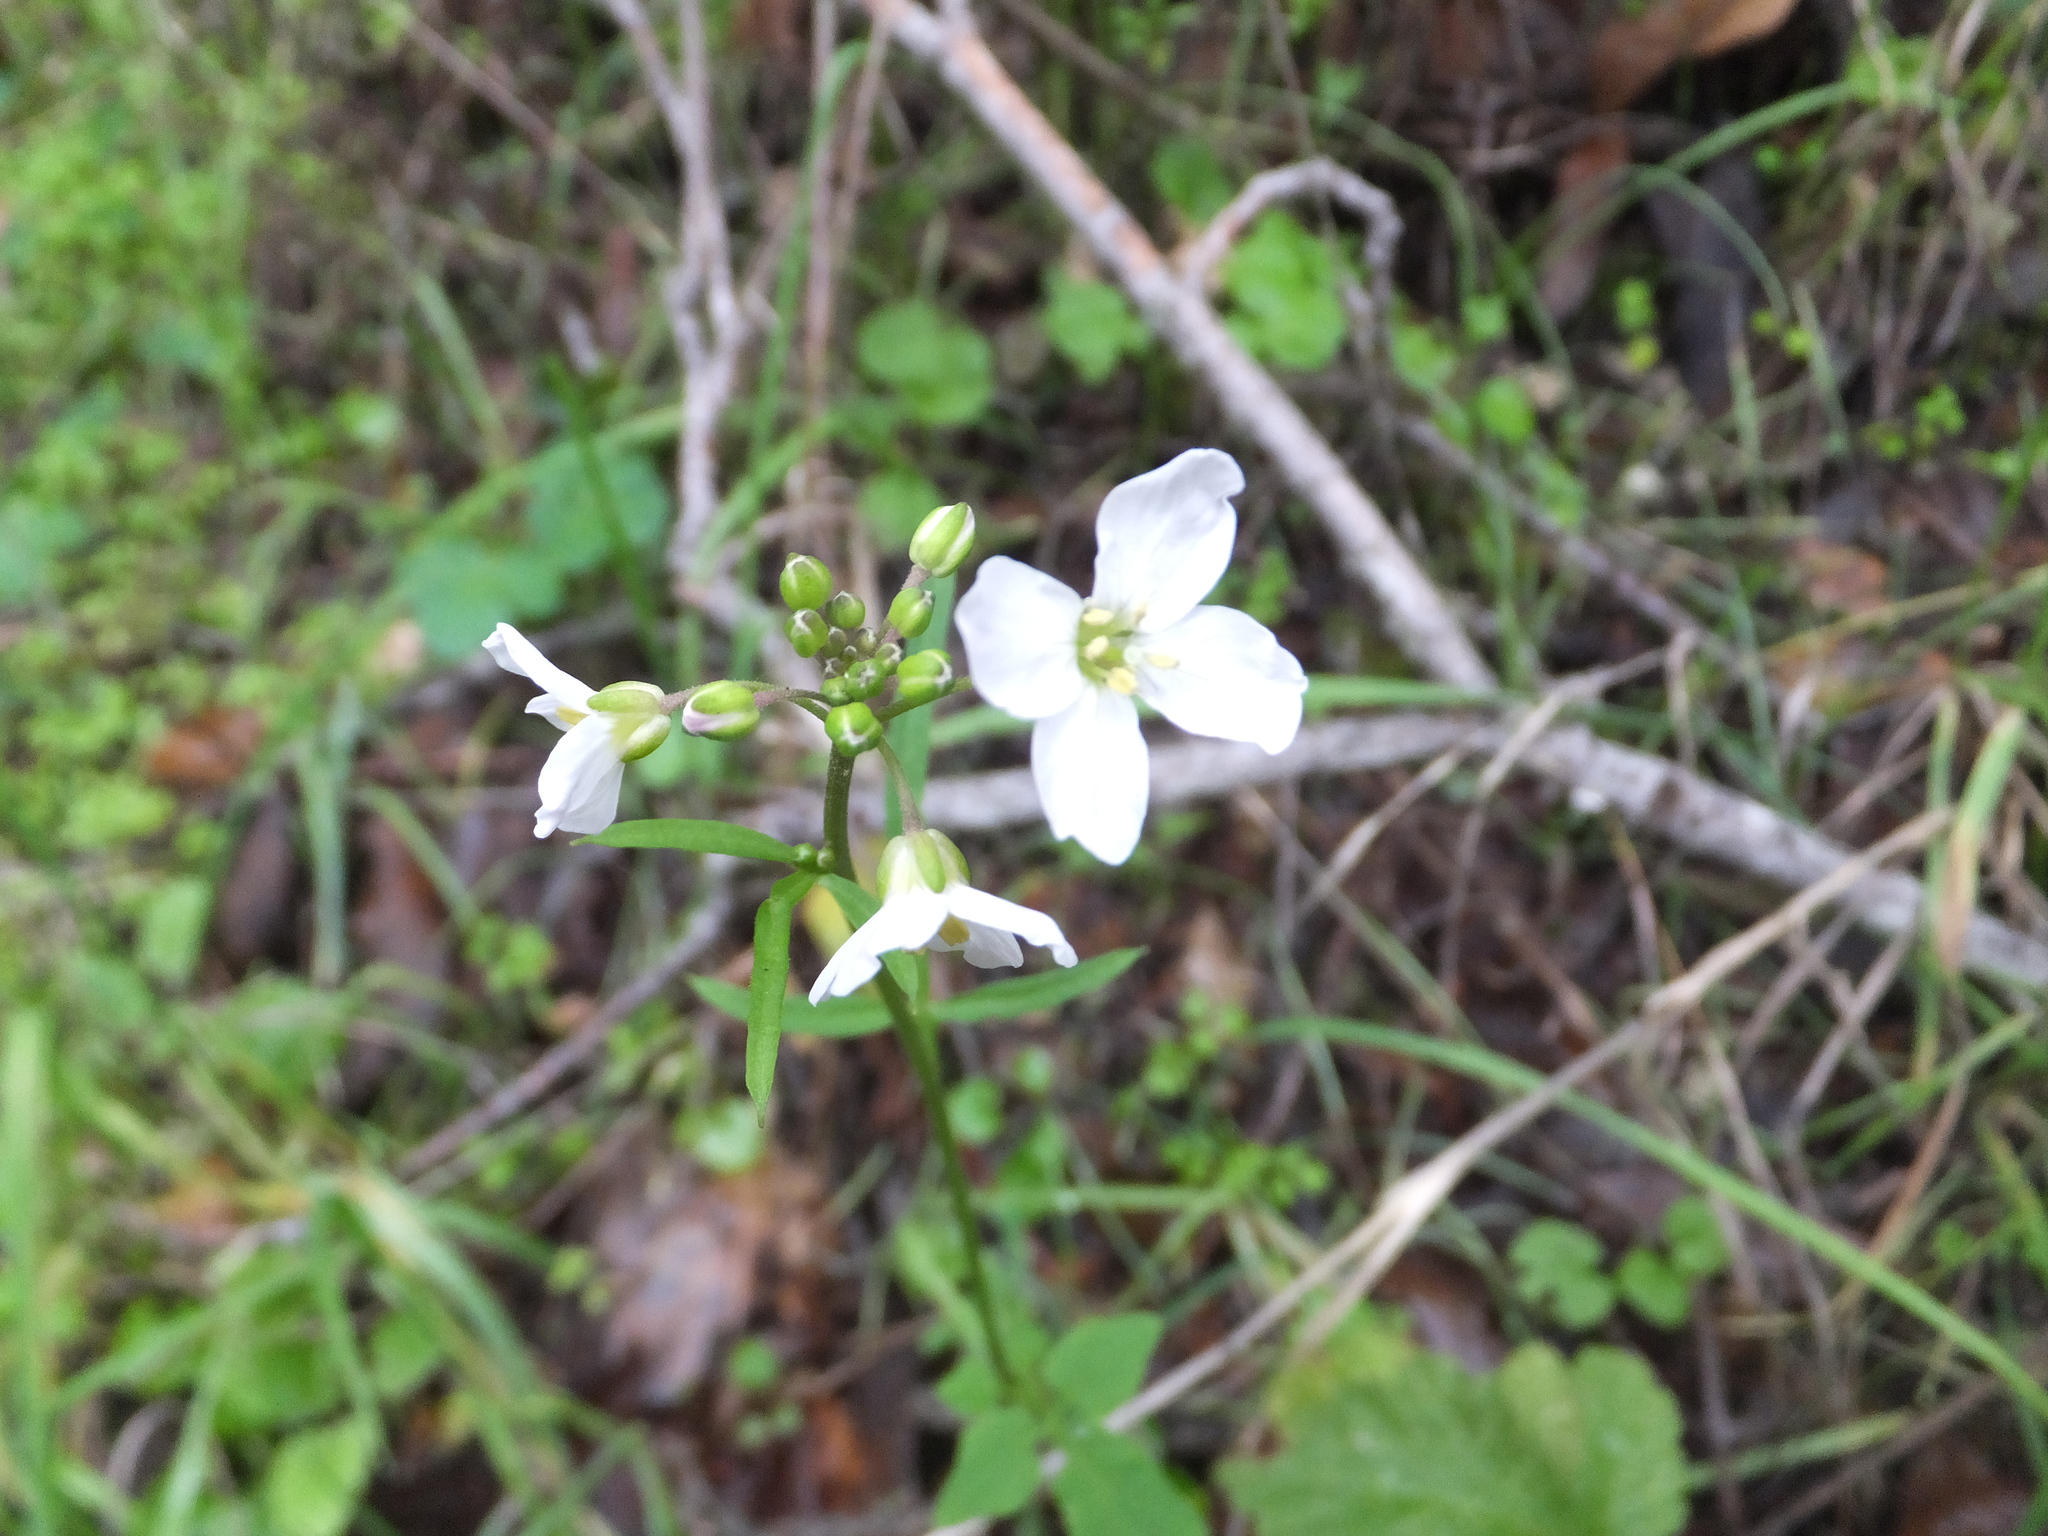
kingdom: Plantae
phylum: Tracheophyta
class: Magnoliopsida
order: Brassicales
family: Brassicaceae
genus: Cardamine
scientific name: Cardamine californica
